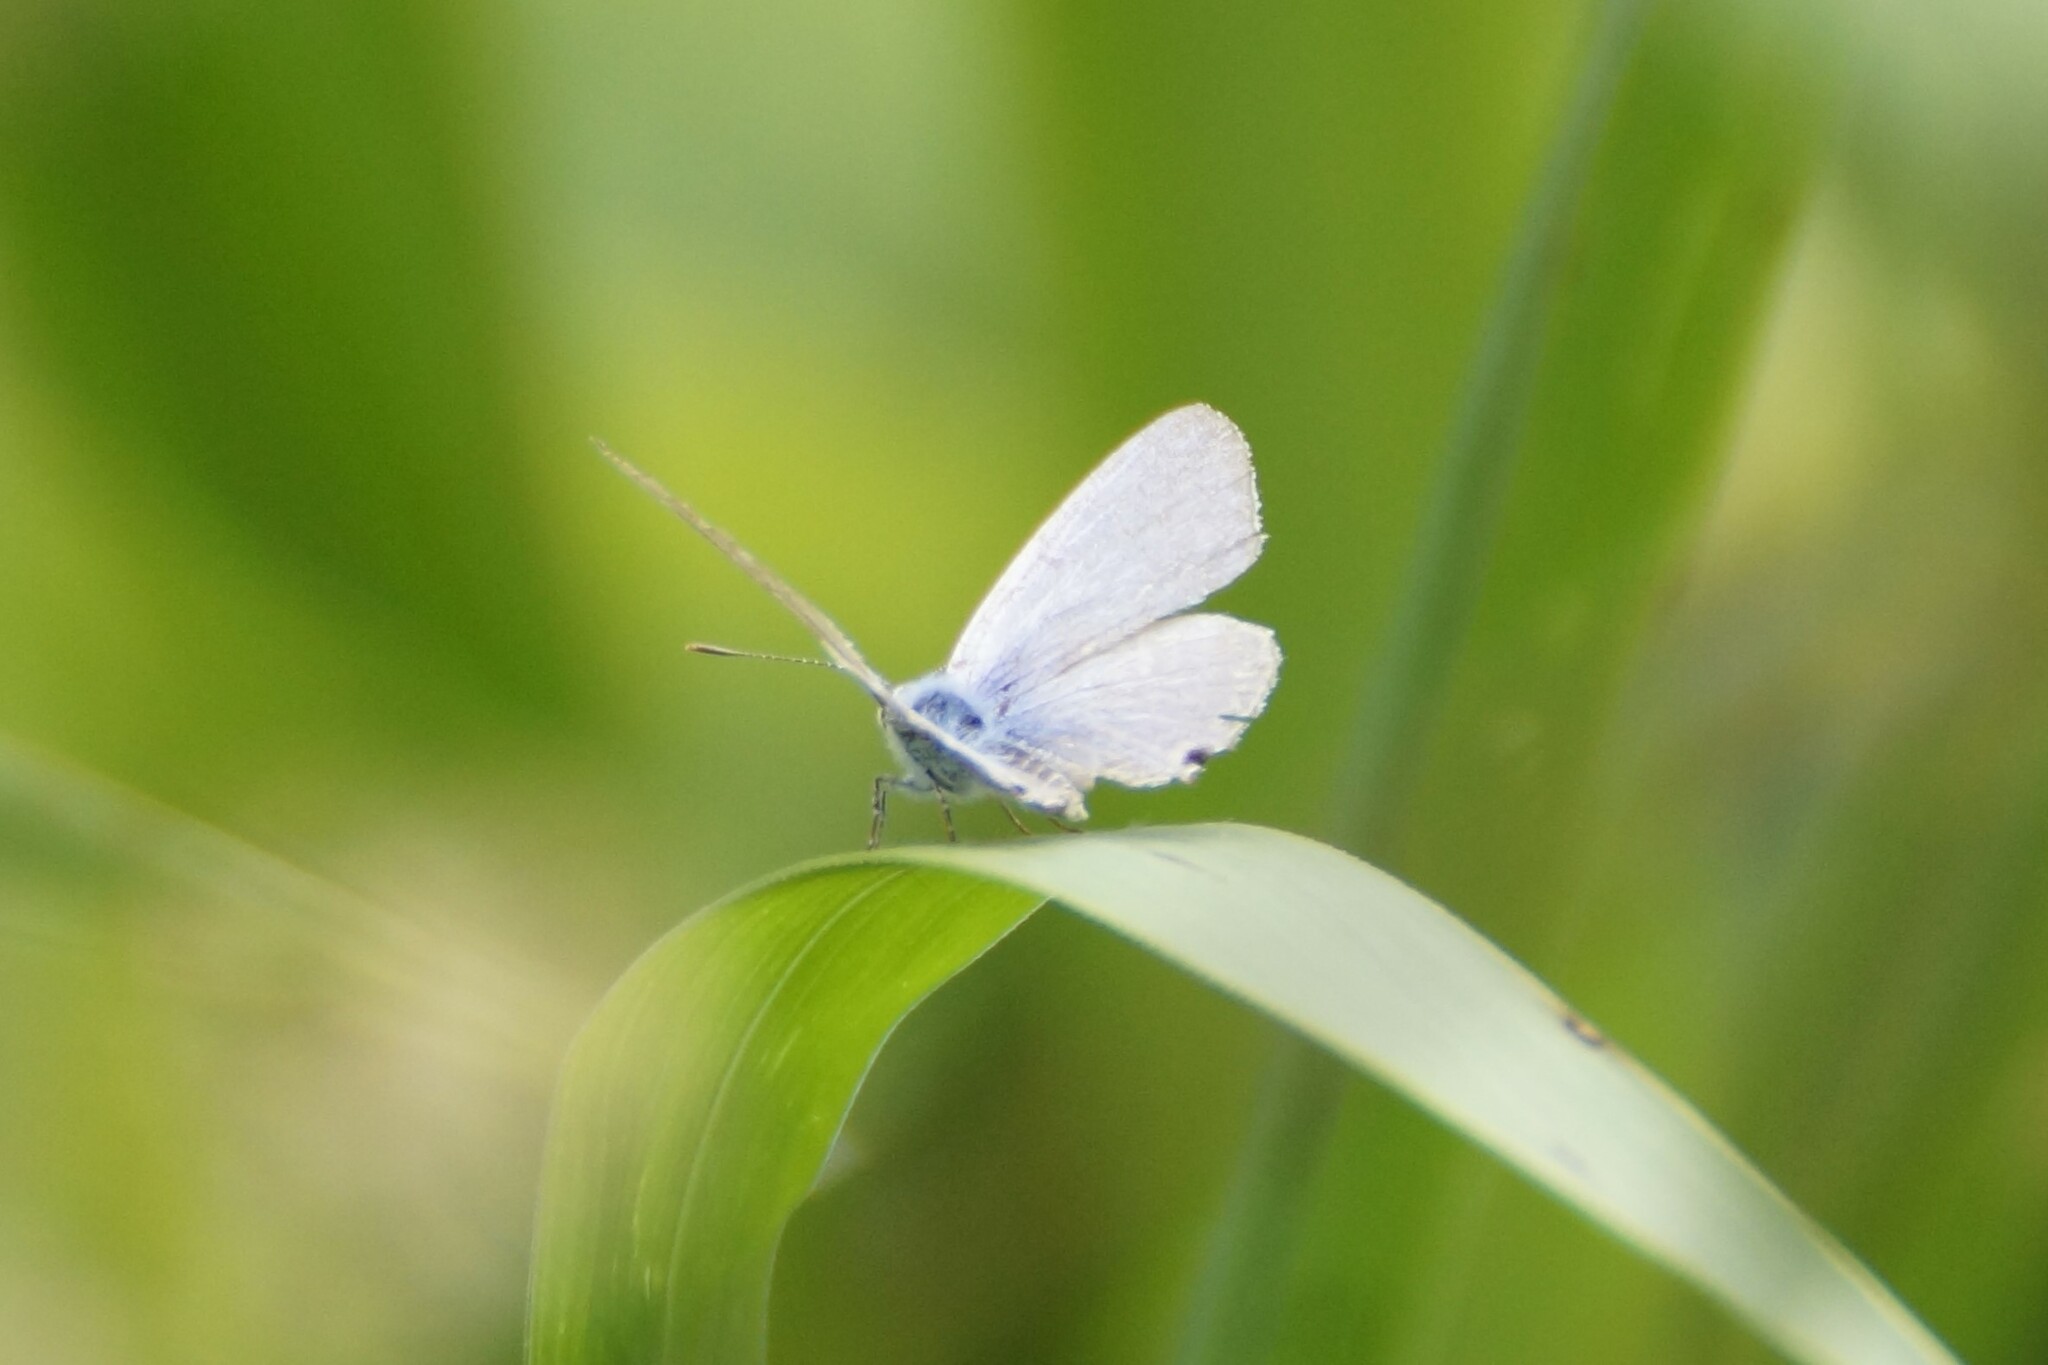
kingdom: Animalia
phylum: Arthropoda
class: Insecta
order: Lepidoptera
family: Lycaenidae
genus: Catochrysops
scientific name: Catochrysops panormus
